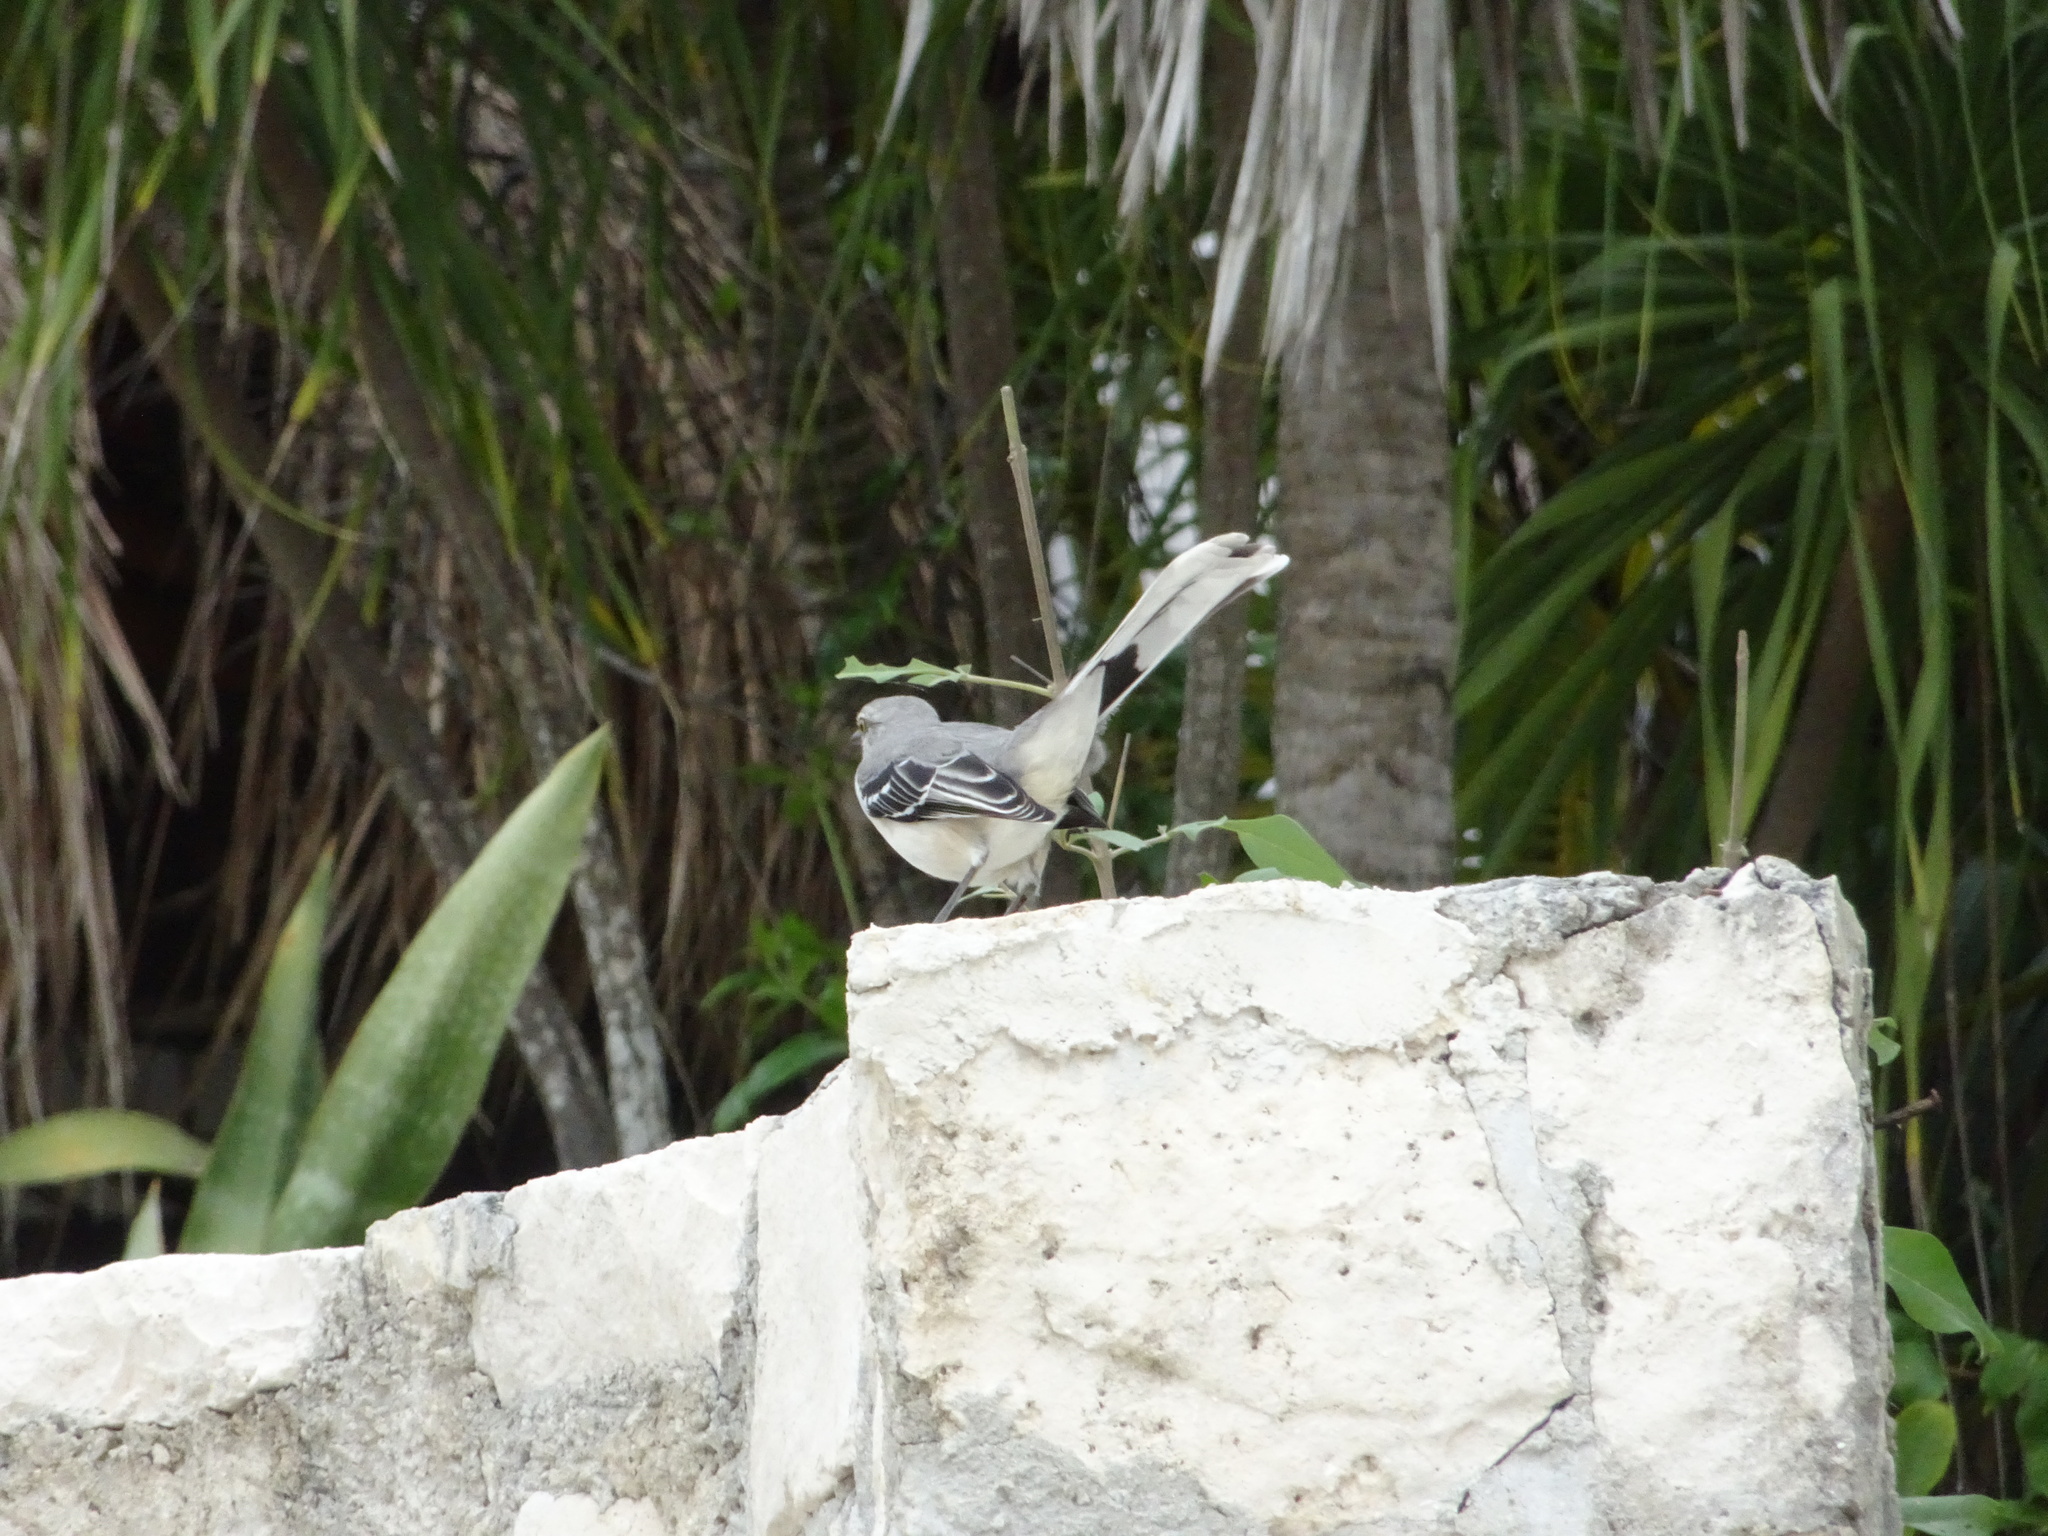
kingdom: Animalia
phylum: Chordata
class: Aves
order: Passeriformes
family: Mimidae
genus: Mimus
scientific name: Mimus gilvus
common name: Tropical mockingbird
